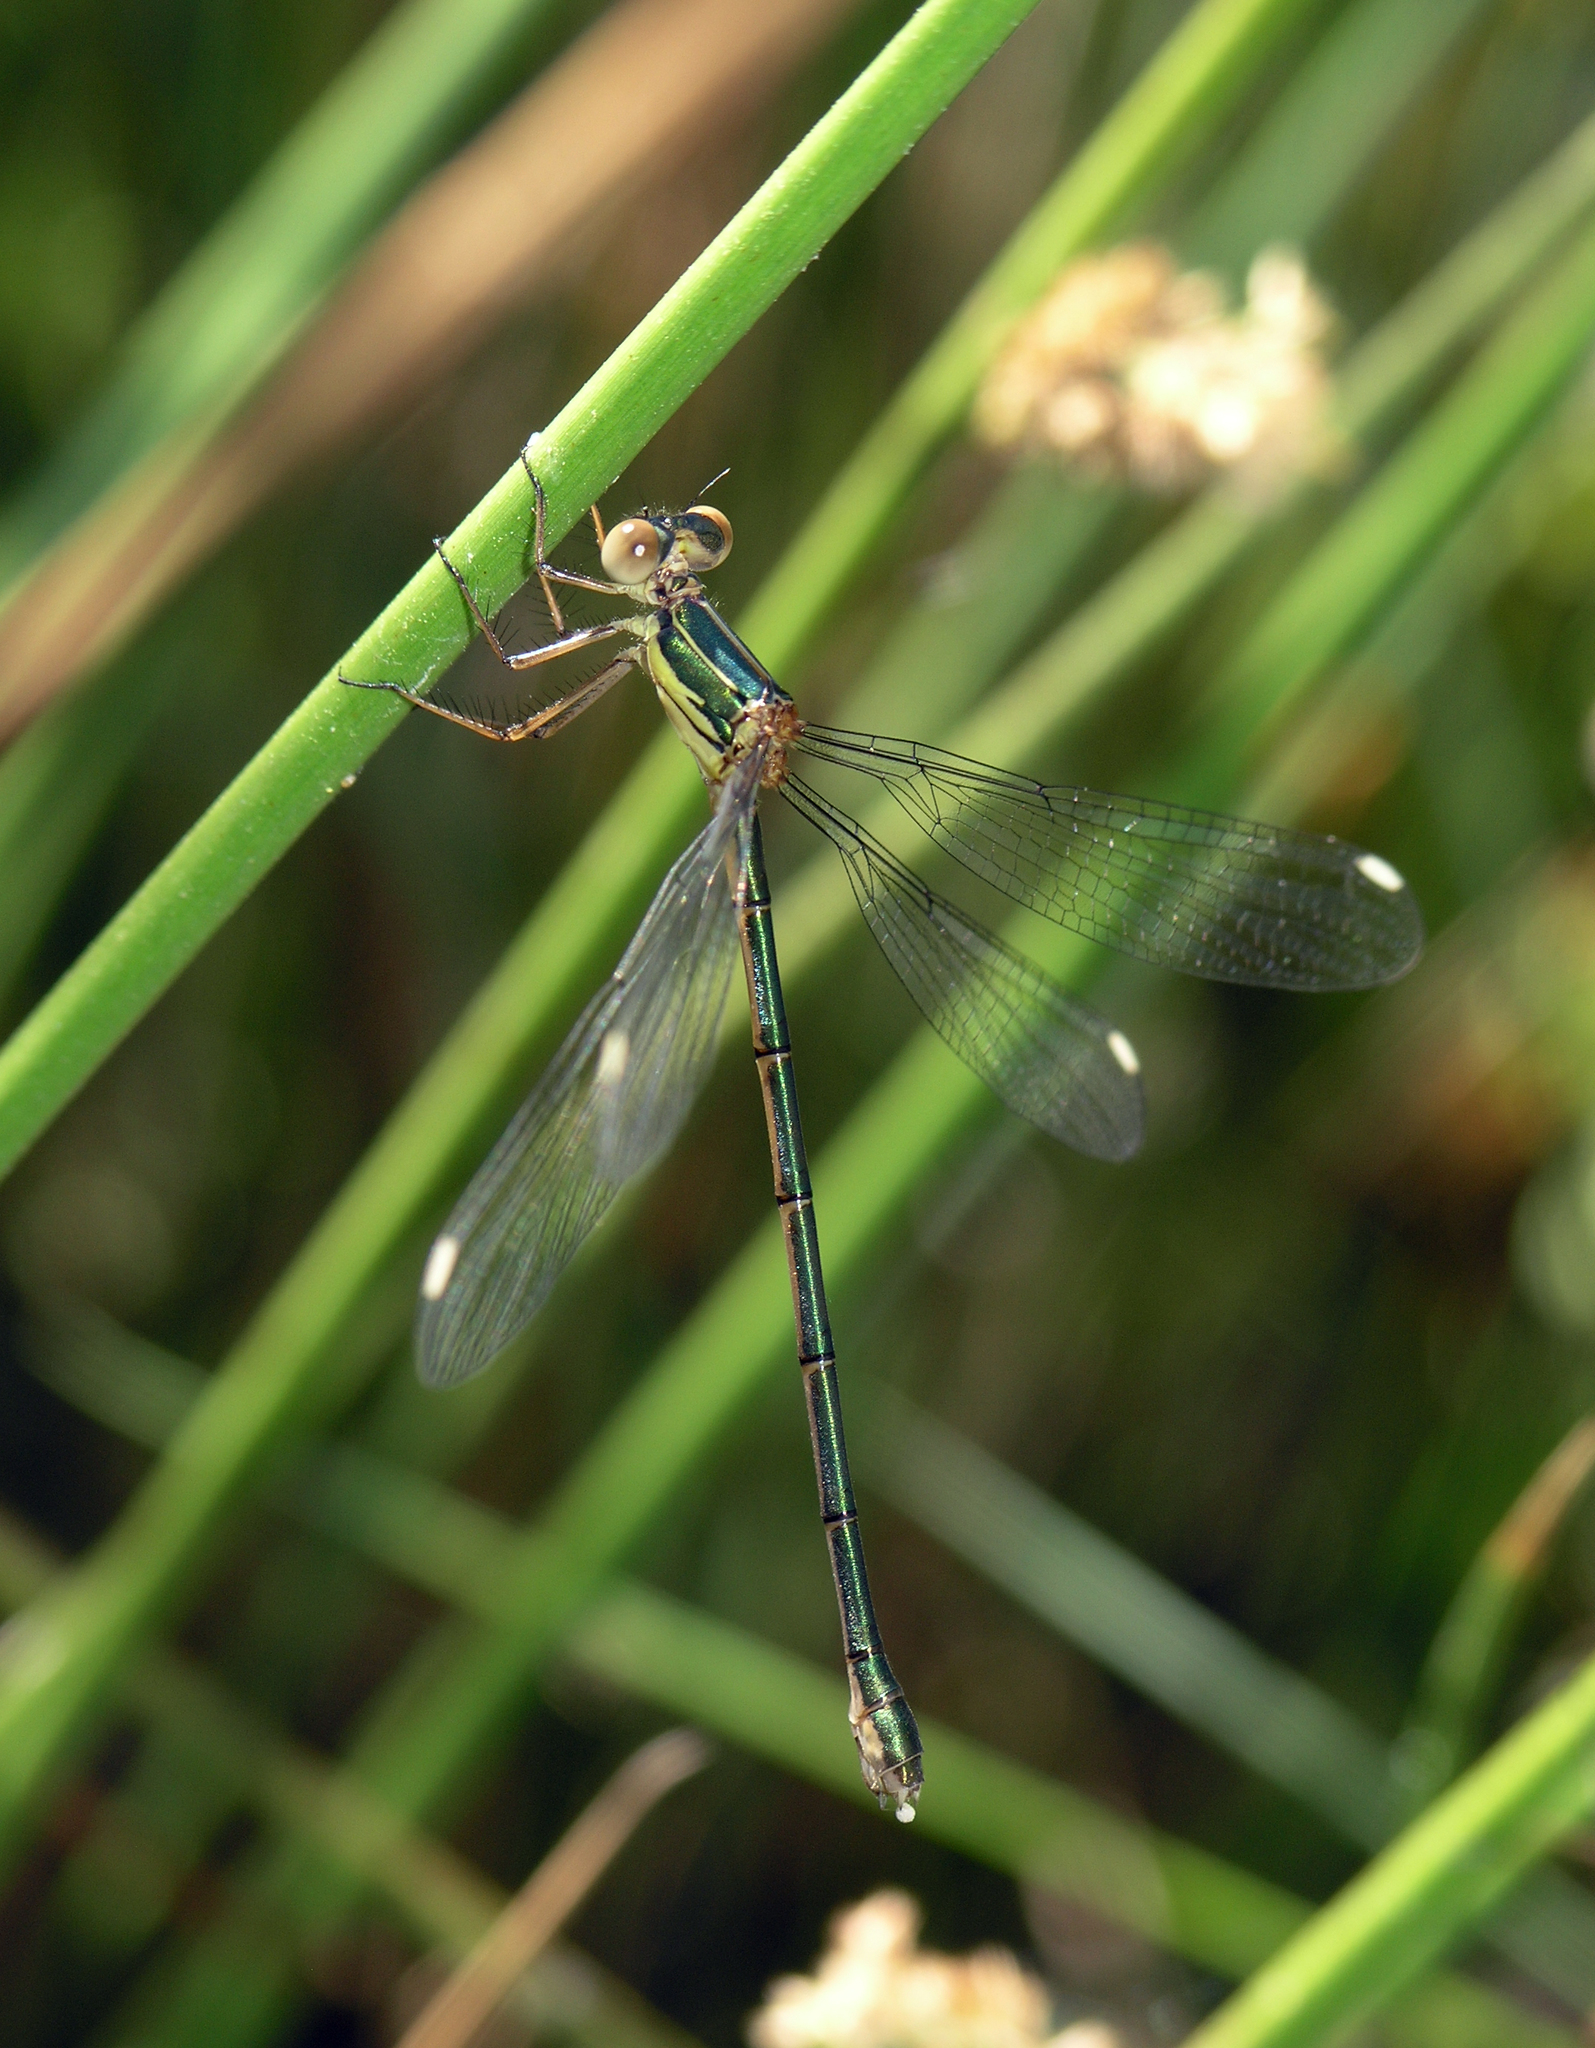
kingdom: Animalia
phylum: Arthropoda
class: Insecta
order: Odonata
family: Lestidae
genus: Chalcolestes
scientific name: Chalcolestes viridis
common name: Green emerald damselfly
